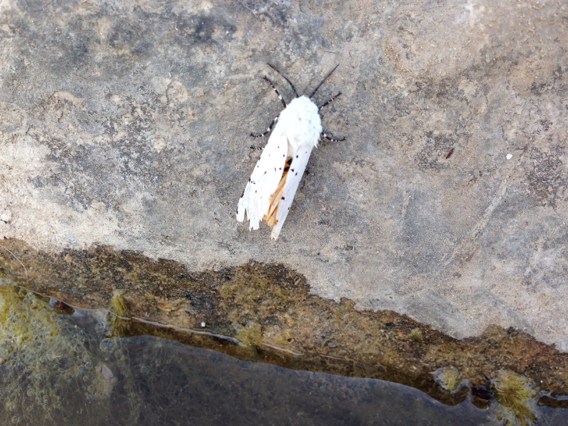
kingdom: Animalia
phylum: Arthropoda
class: Insecta
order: Lepidoptera
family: Erebidae
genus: Estigmene
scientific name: Estigmene acrea
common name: Salt marsh moth
